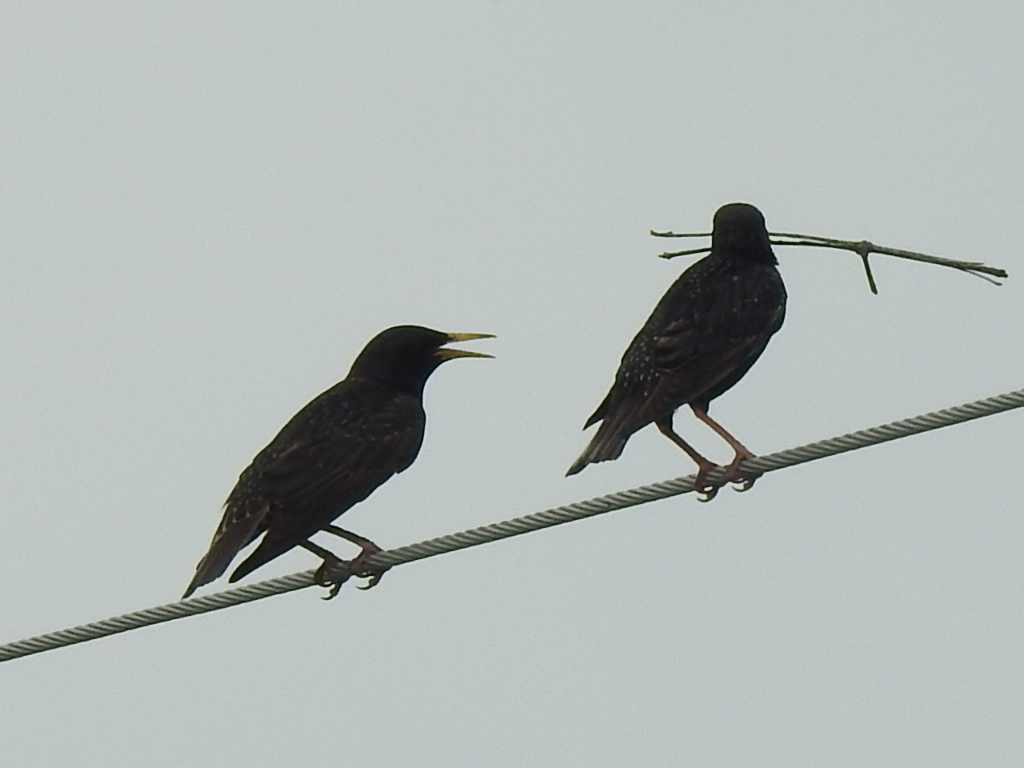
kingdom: Animalia
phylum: Chordata
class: Aves
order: Passeriformes
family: Sturnidae
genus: Sturnus
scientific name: Sturnus vulgaris
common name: Common starling
